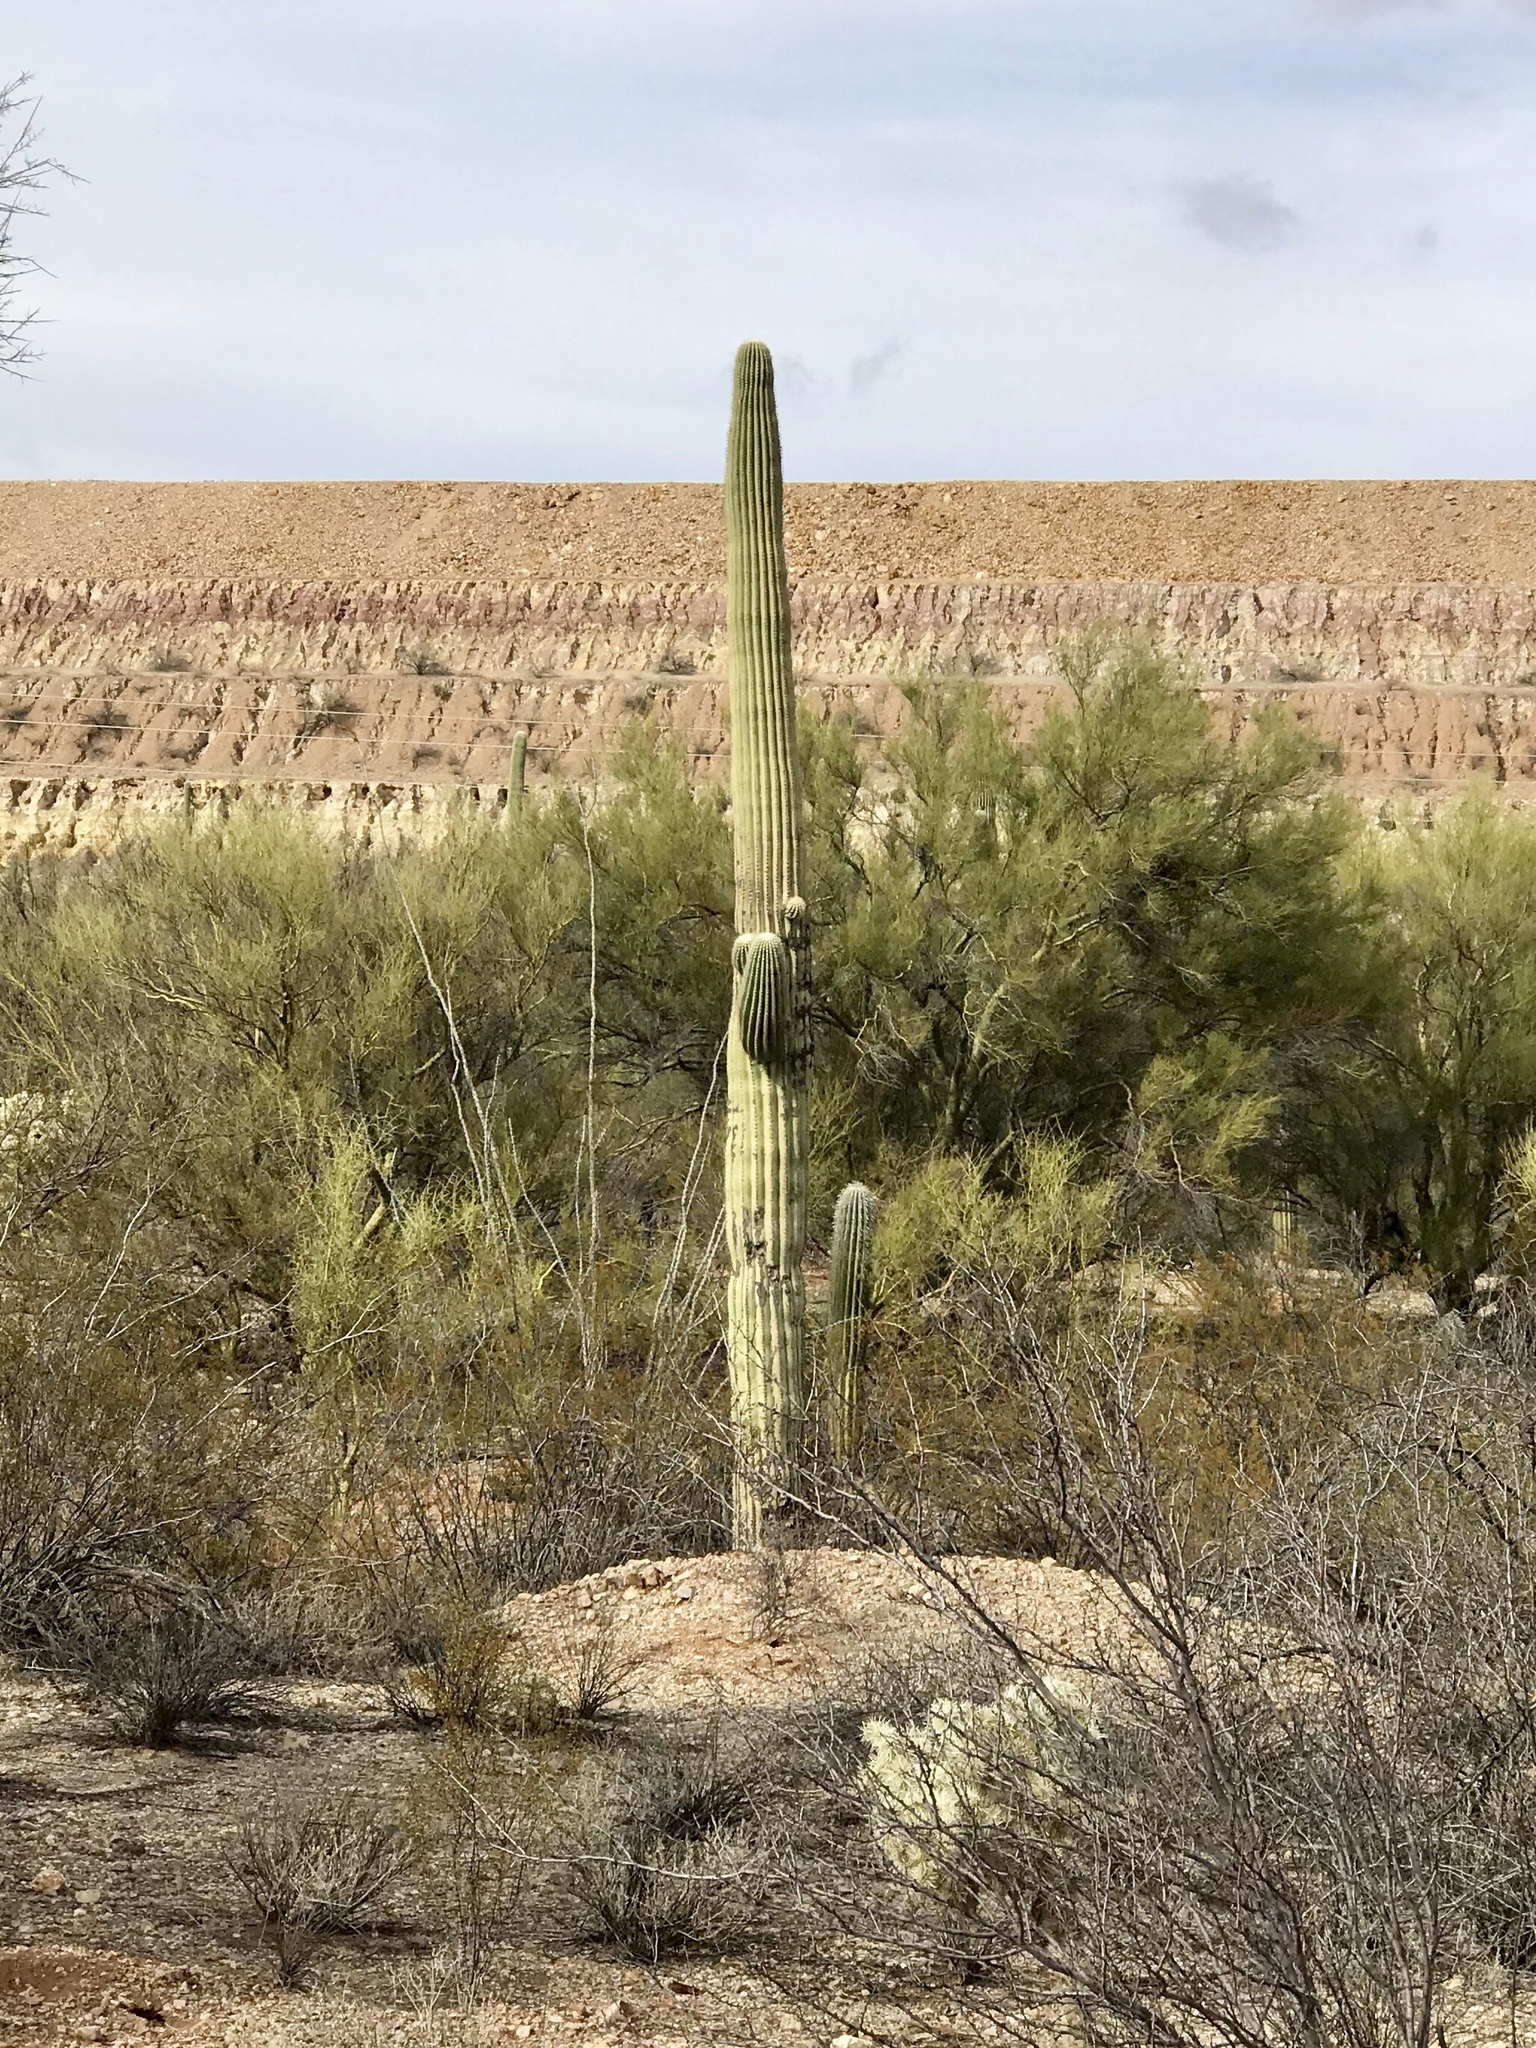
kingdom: Plantae
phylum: Tracheophyta
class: Magnoliopsida
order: Caryophyllales
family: Cactaceae
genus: Carnegiea
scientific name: Carnegiea gigantea
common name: Saguaro
